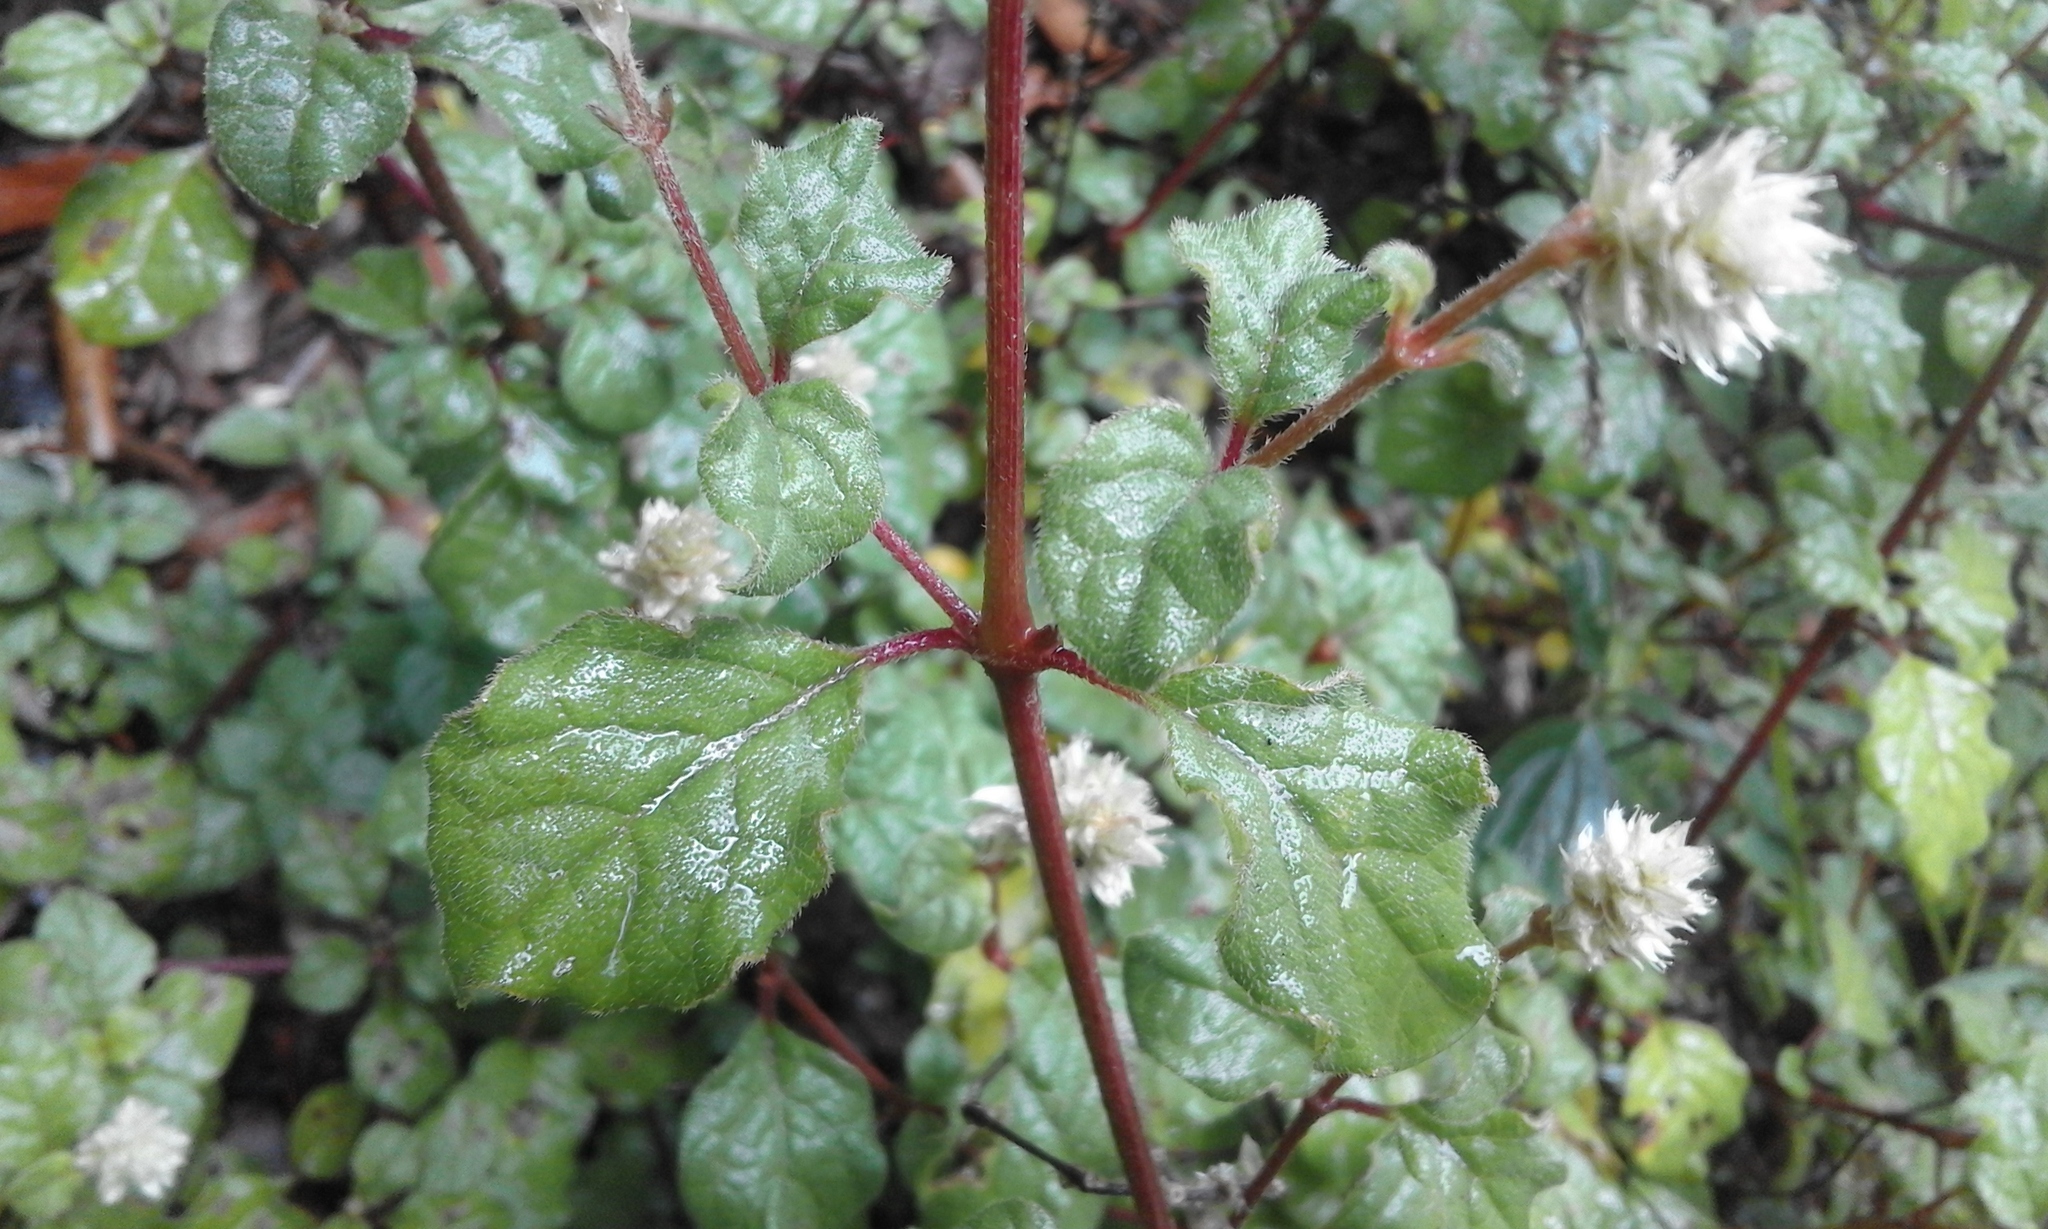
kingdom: Plantae
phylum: Tracheophyta
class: Magnoliopsida
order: Caryophyllales
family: Amaranthaceae
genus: Cyathula
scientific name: Cyathula cylindrica
